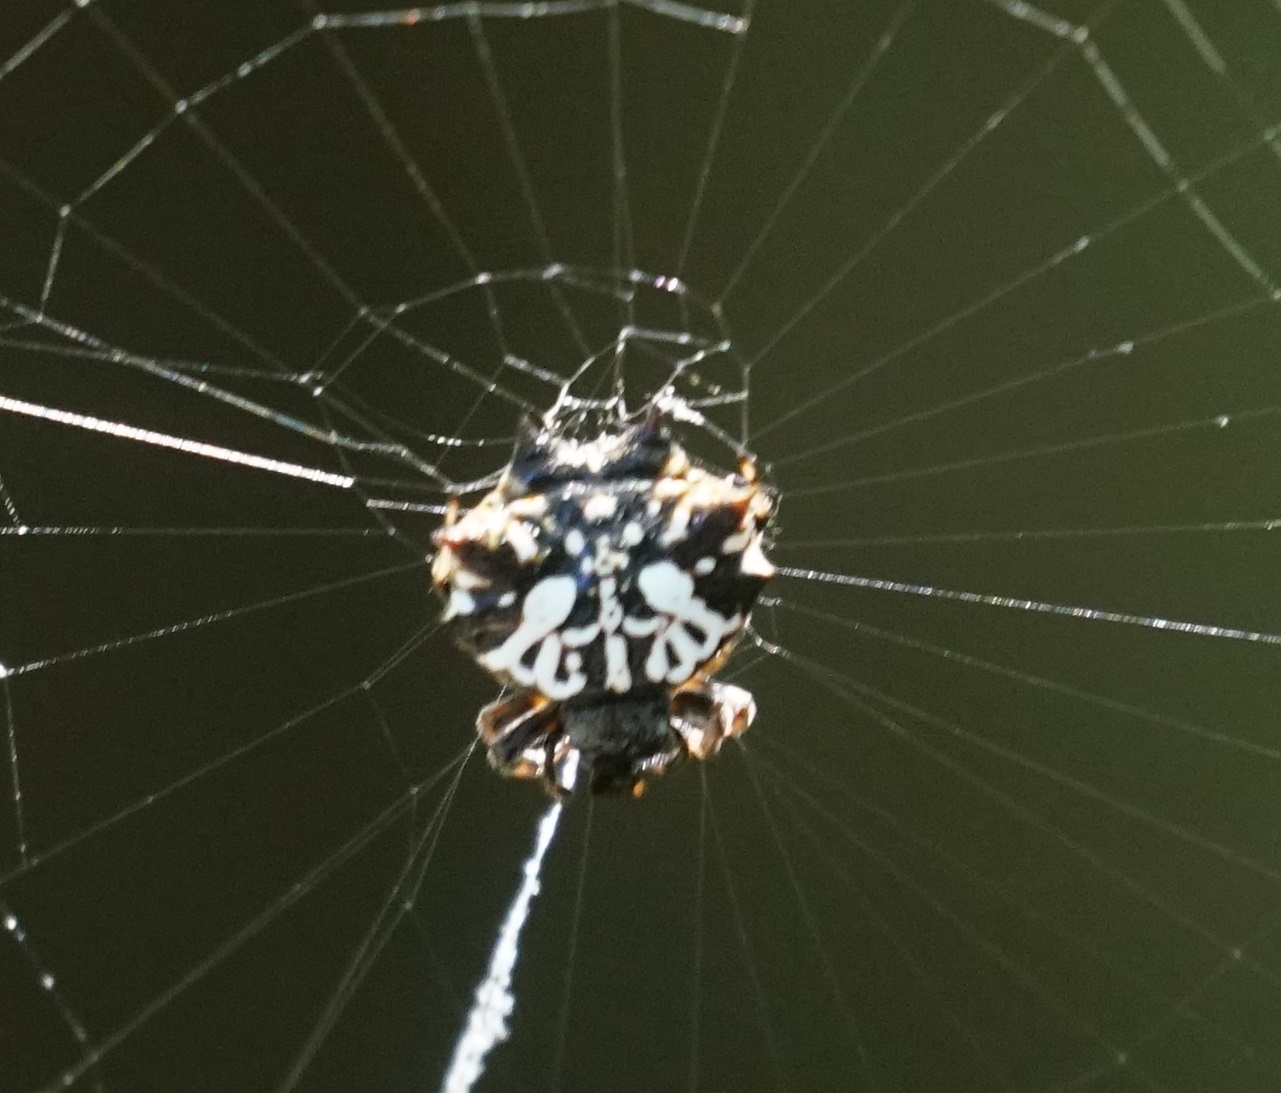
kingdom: Animalia
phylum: Arthropoda
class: Arachnida
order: Araneae
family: Araneidae
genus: Gasteracantha
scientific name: Gasteracantha sacerdotalis
